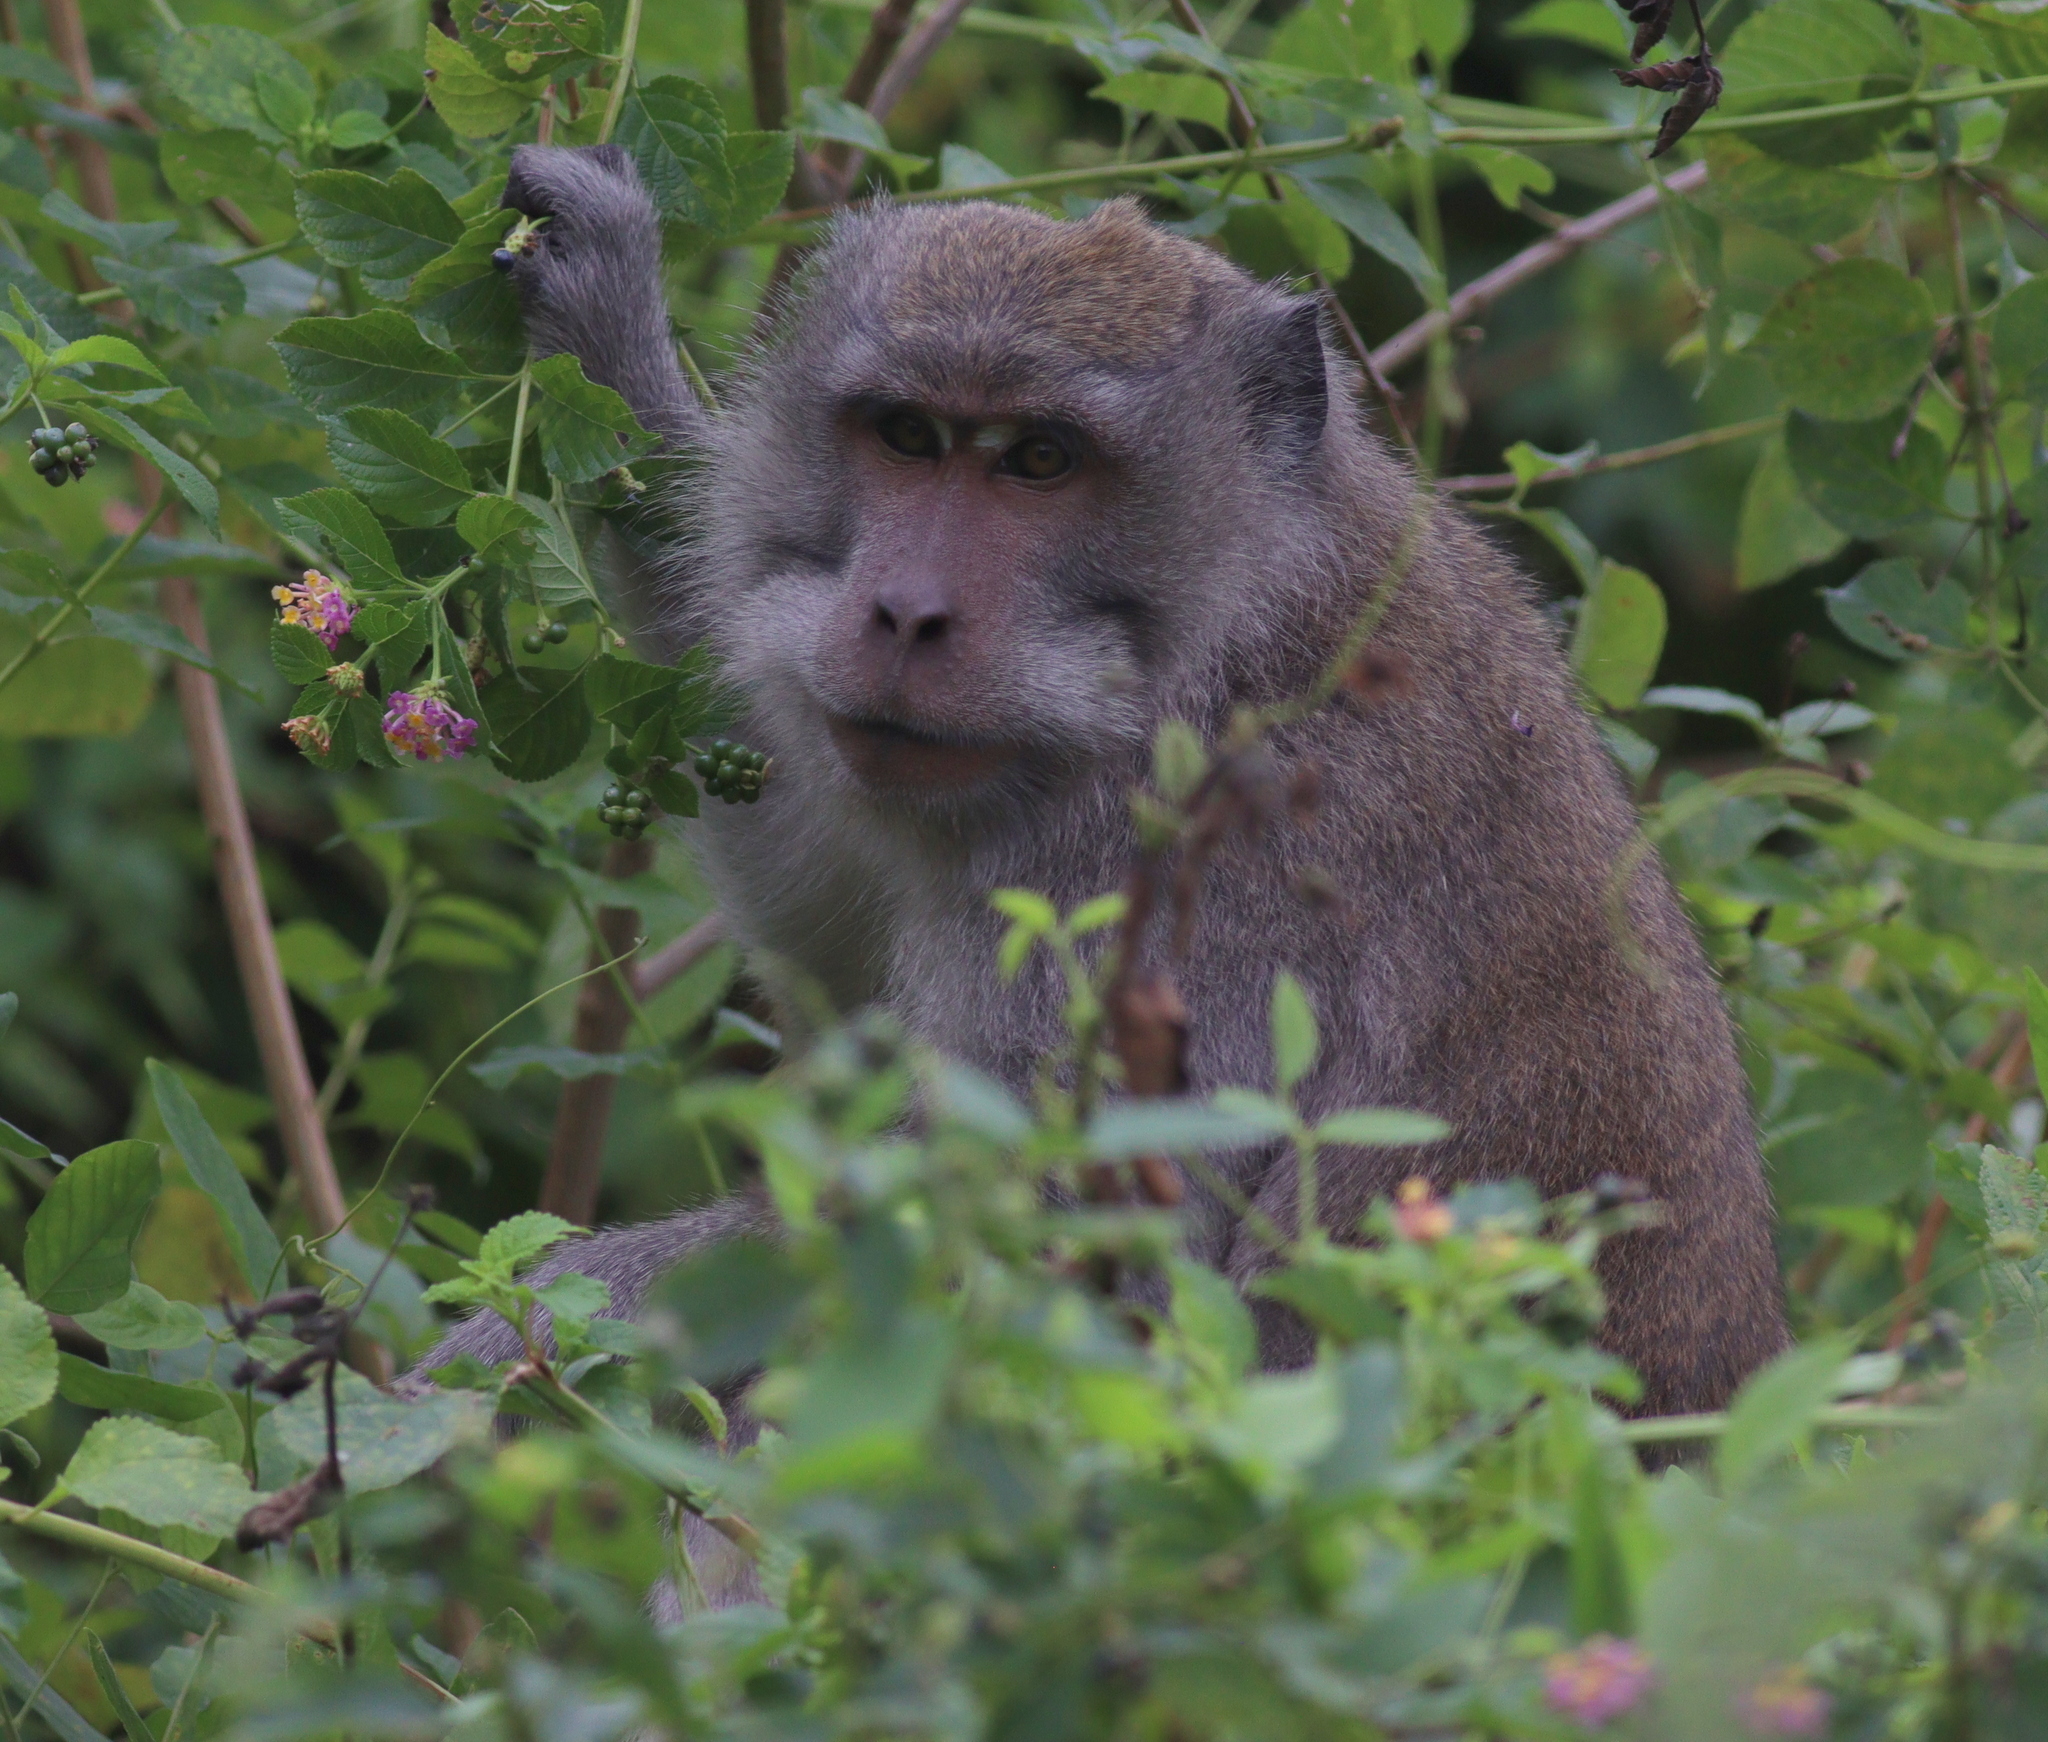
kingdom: Animalia
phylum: Chordata
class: Mammalia
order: Primates
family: Cercopithecidae
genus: Macaca
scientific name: Macaca fascicularis
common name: Crab-eating macaque
